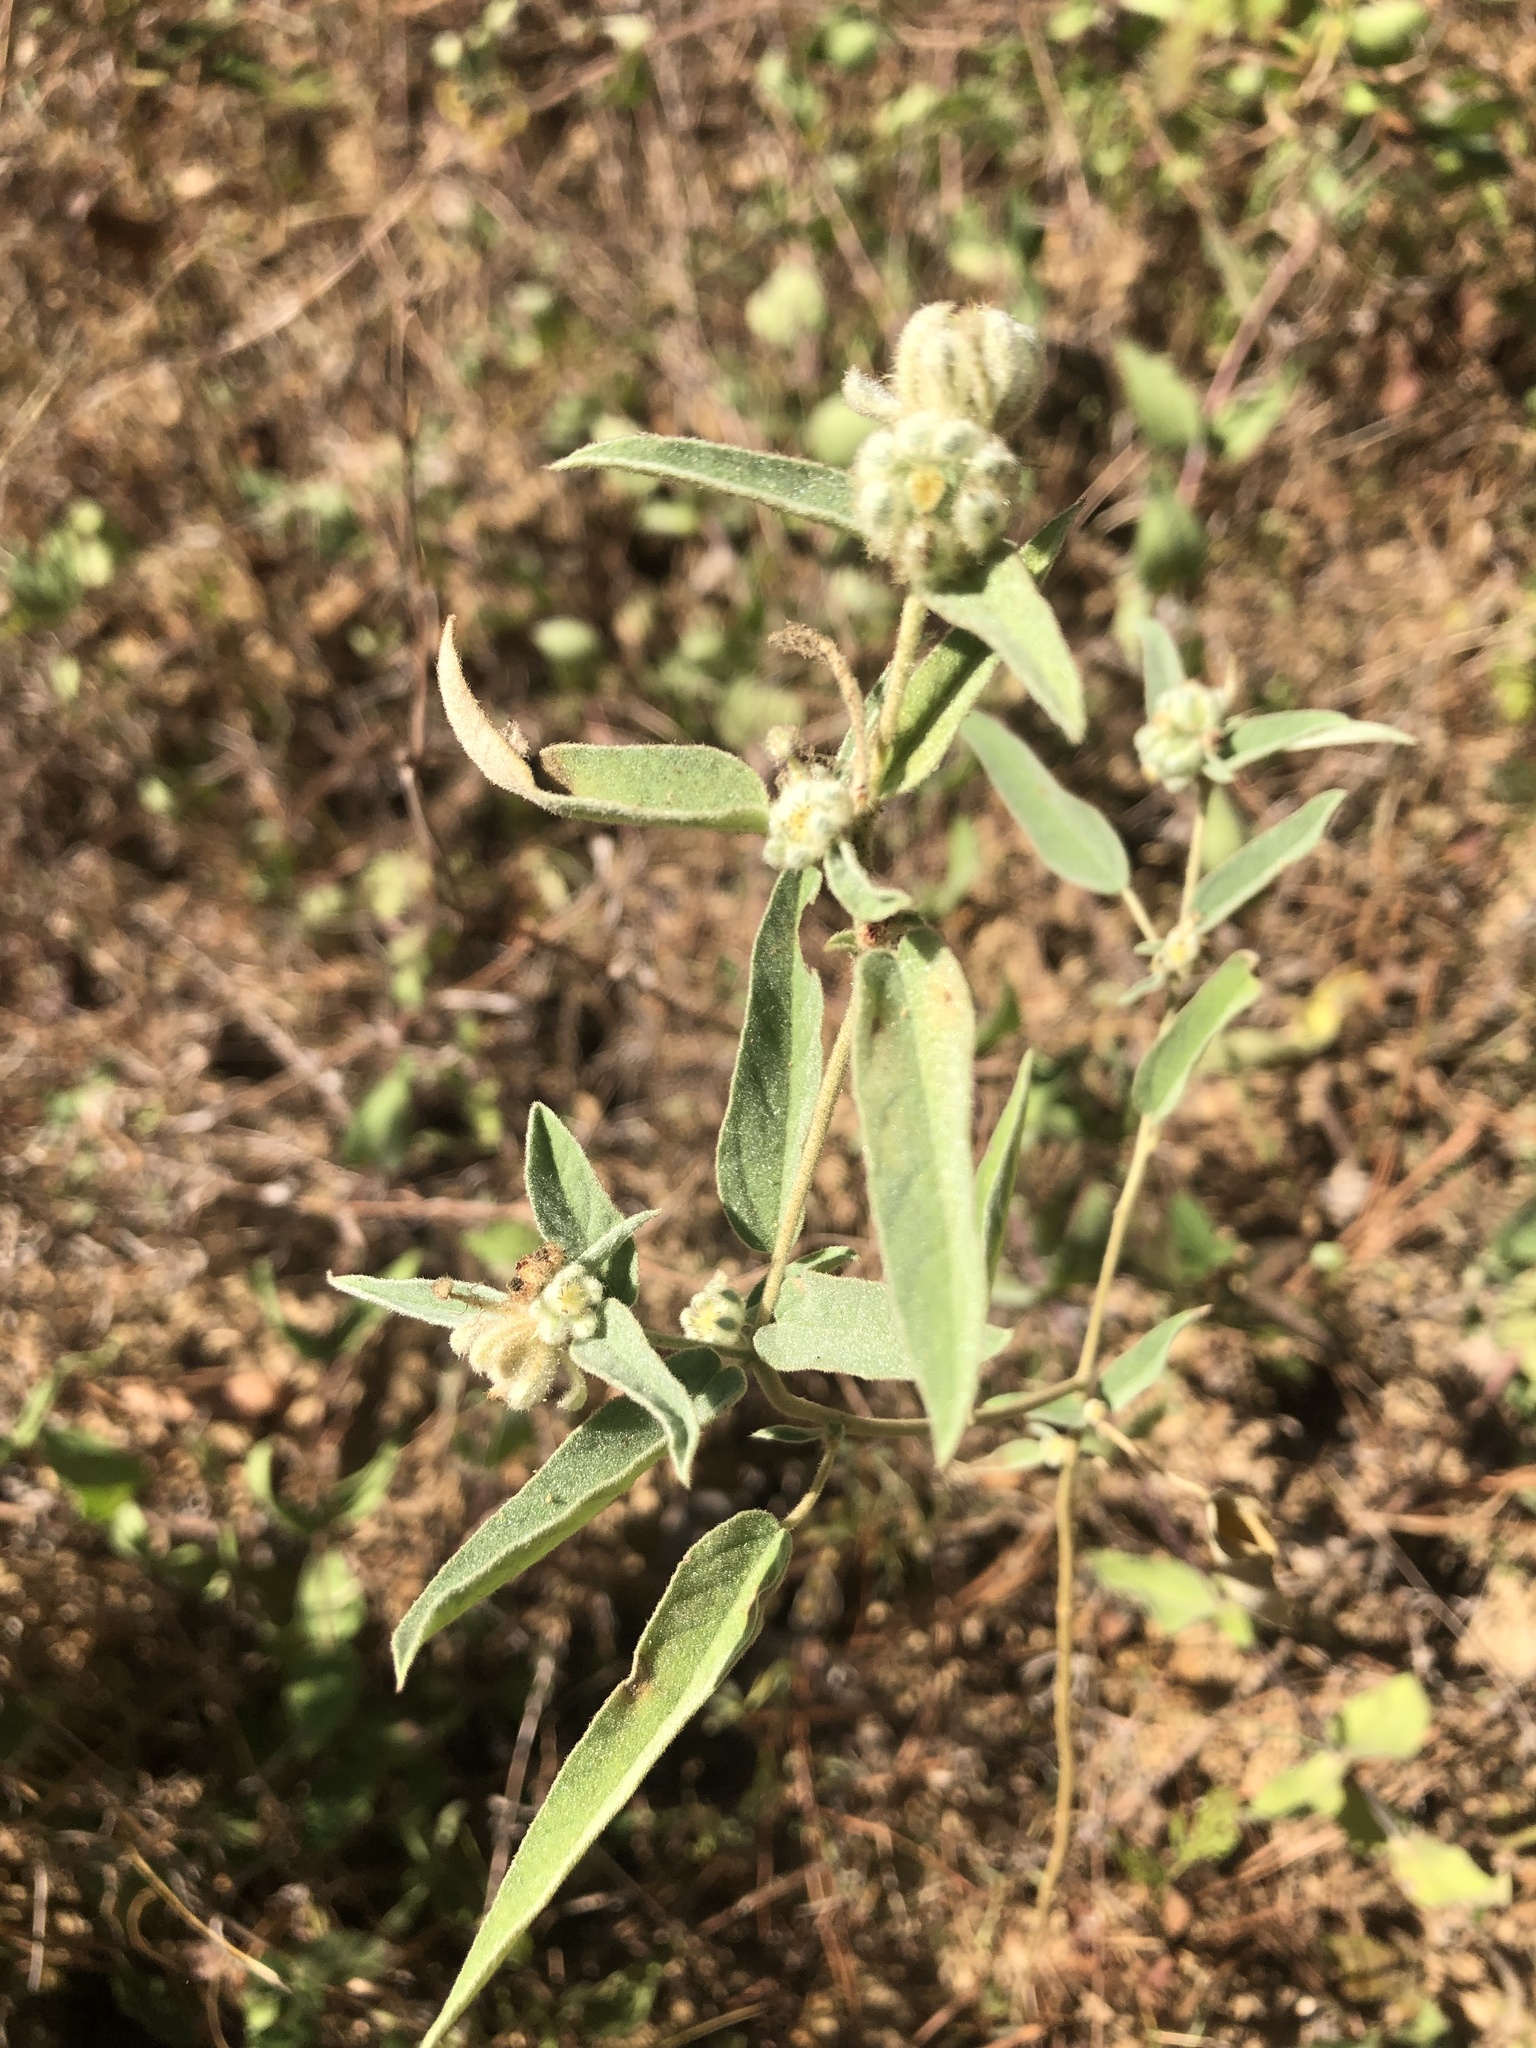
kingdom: Plantae
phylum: Tracheophyta
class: Magnoliopsida
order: Malpighiales
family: Euphorbiaceae
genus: Croton
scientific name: Croton lindheimeri
